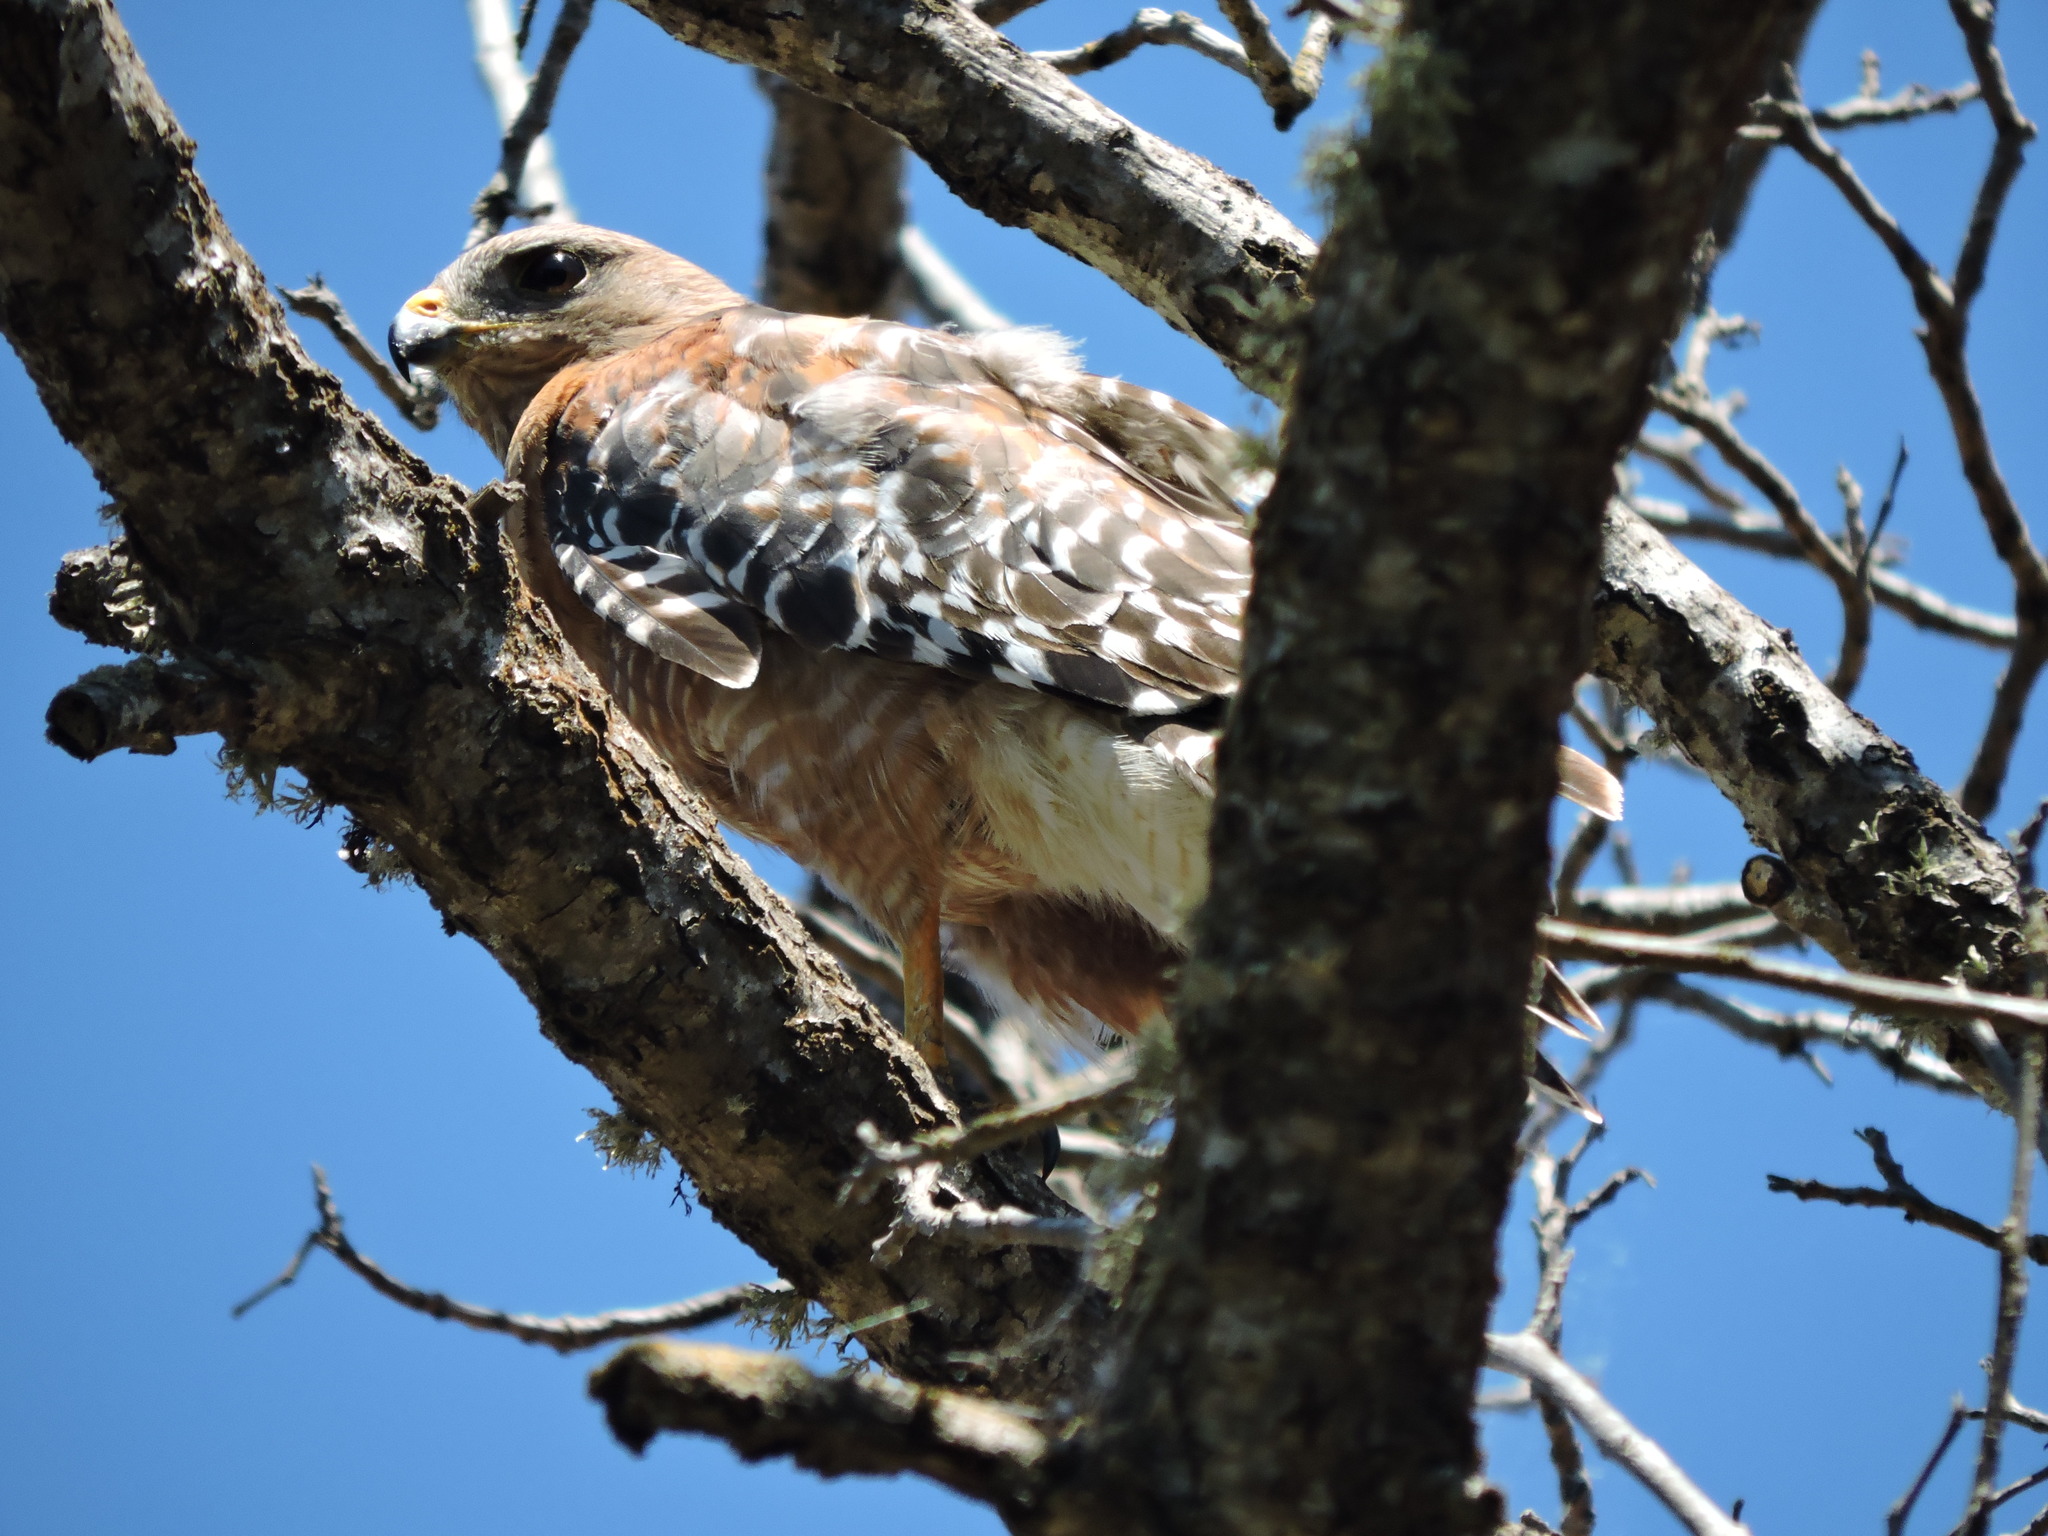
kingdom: Animalia
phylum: Chordata
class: Aves
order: Accipitriformes
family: Accipitridae
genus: Buteo
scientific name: Buteo lineatus
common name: Red-shouldered hawk
